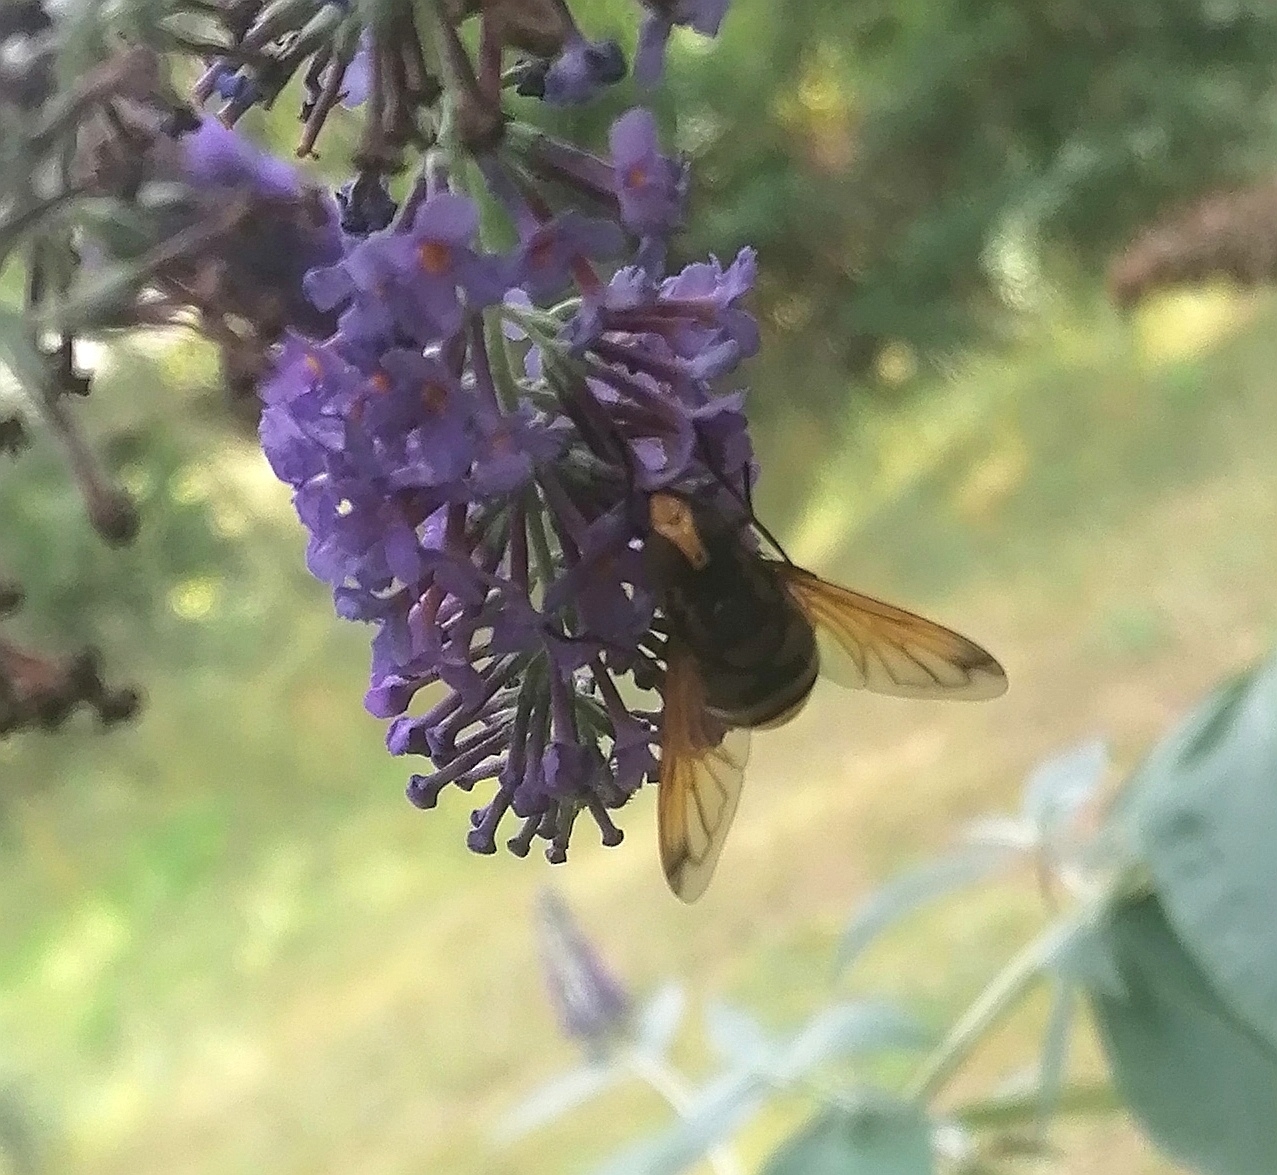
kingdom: Animalia
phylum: Arthropoda
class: Insecta
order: Diptera
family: Syrphidae
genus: Volucella
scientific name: Volucella zonaria
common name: Hornet hoverfly
